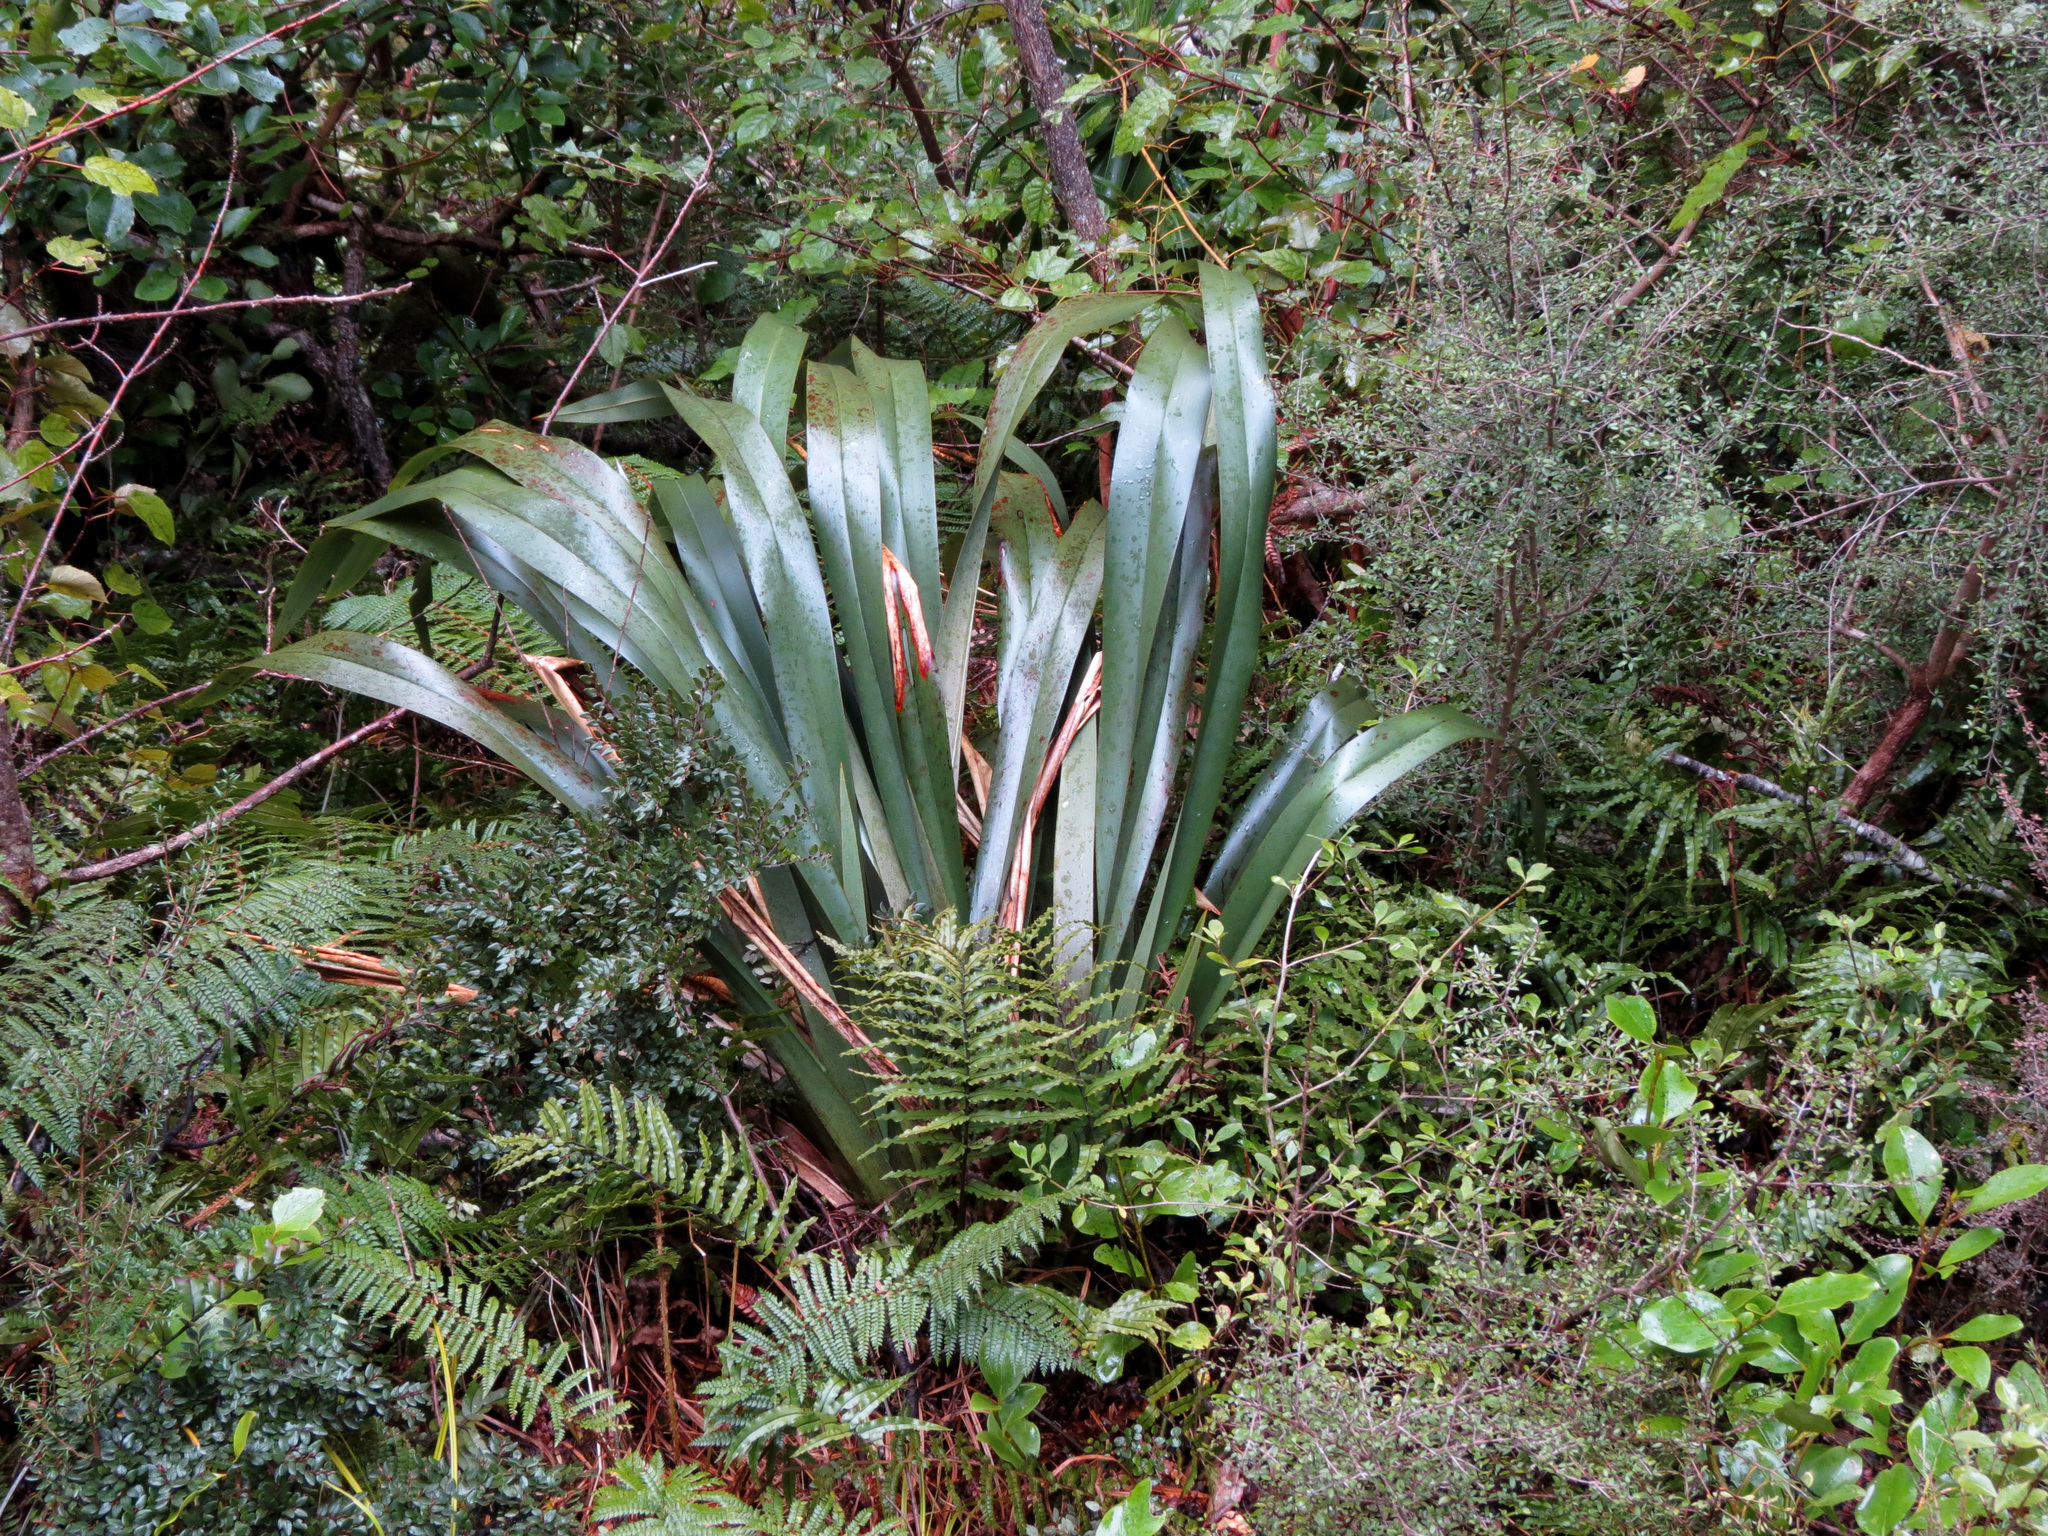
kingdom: Plantae
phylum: Tracheophyta
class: Liliopsida
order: Asparagales
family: Asphodelaceae
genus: Phormium
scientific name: Phormium colensoi
